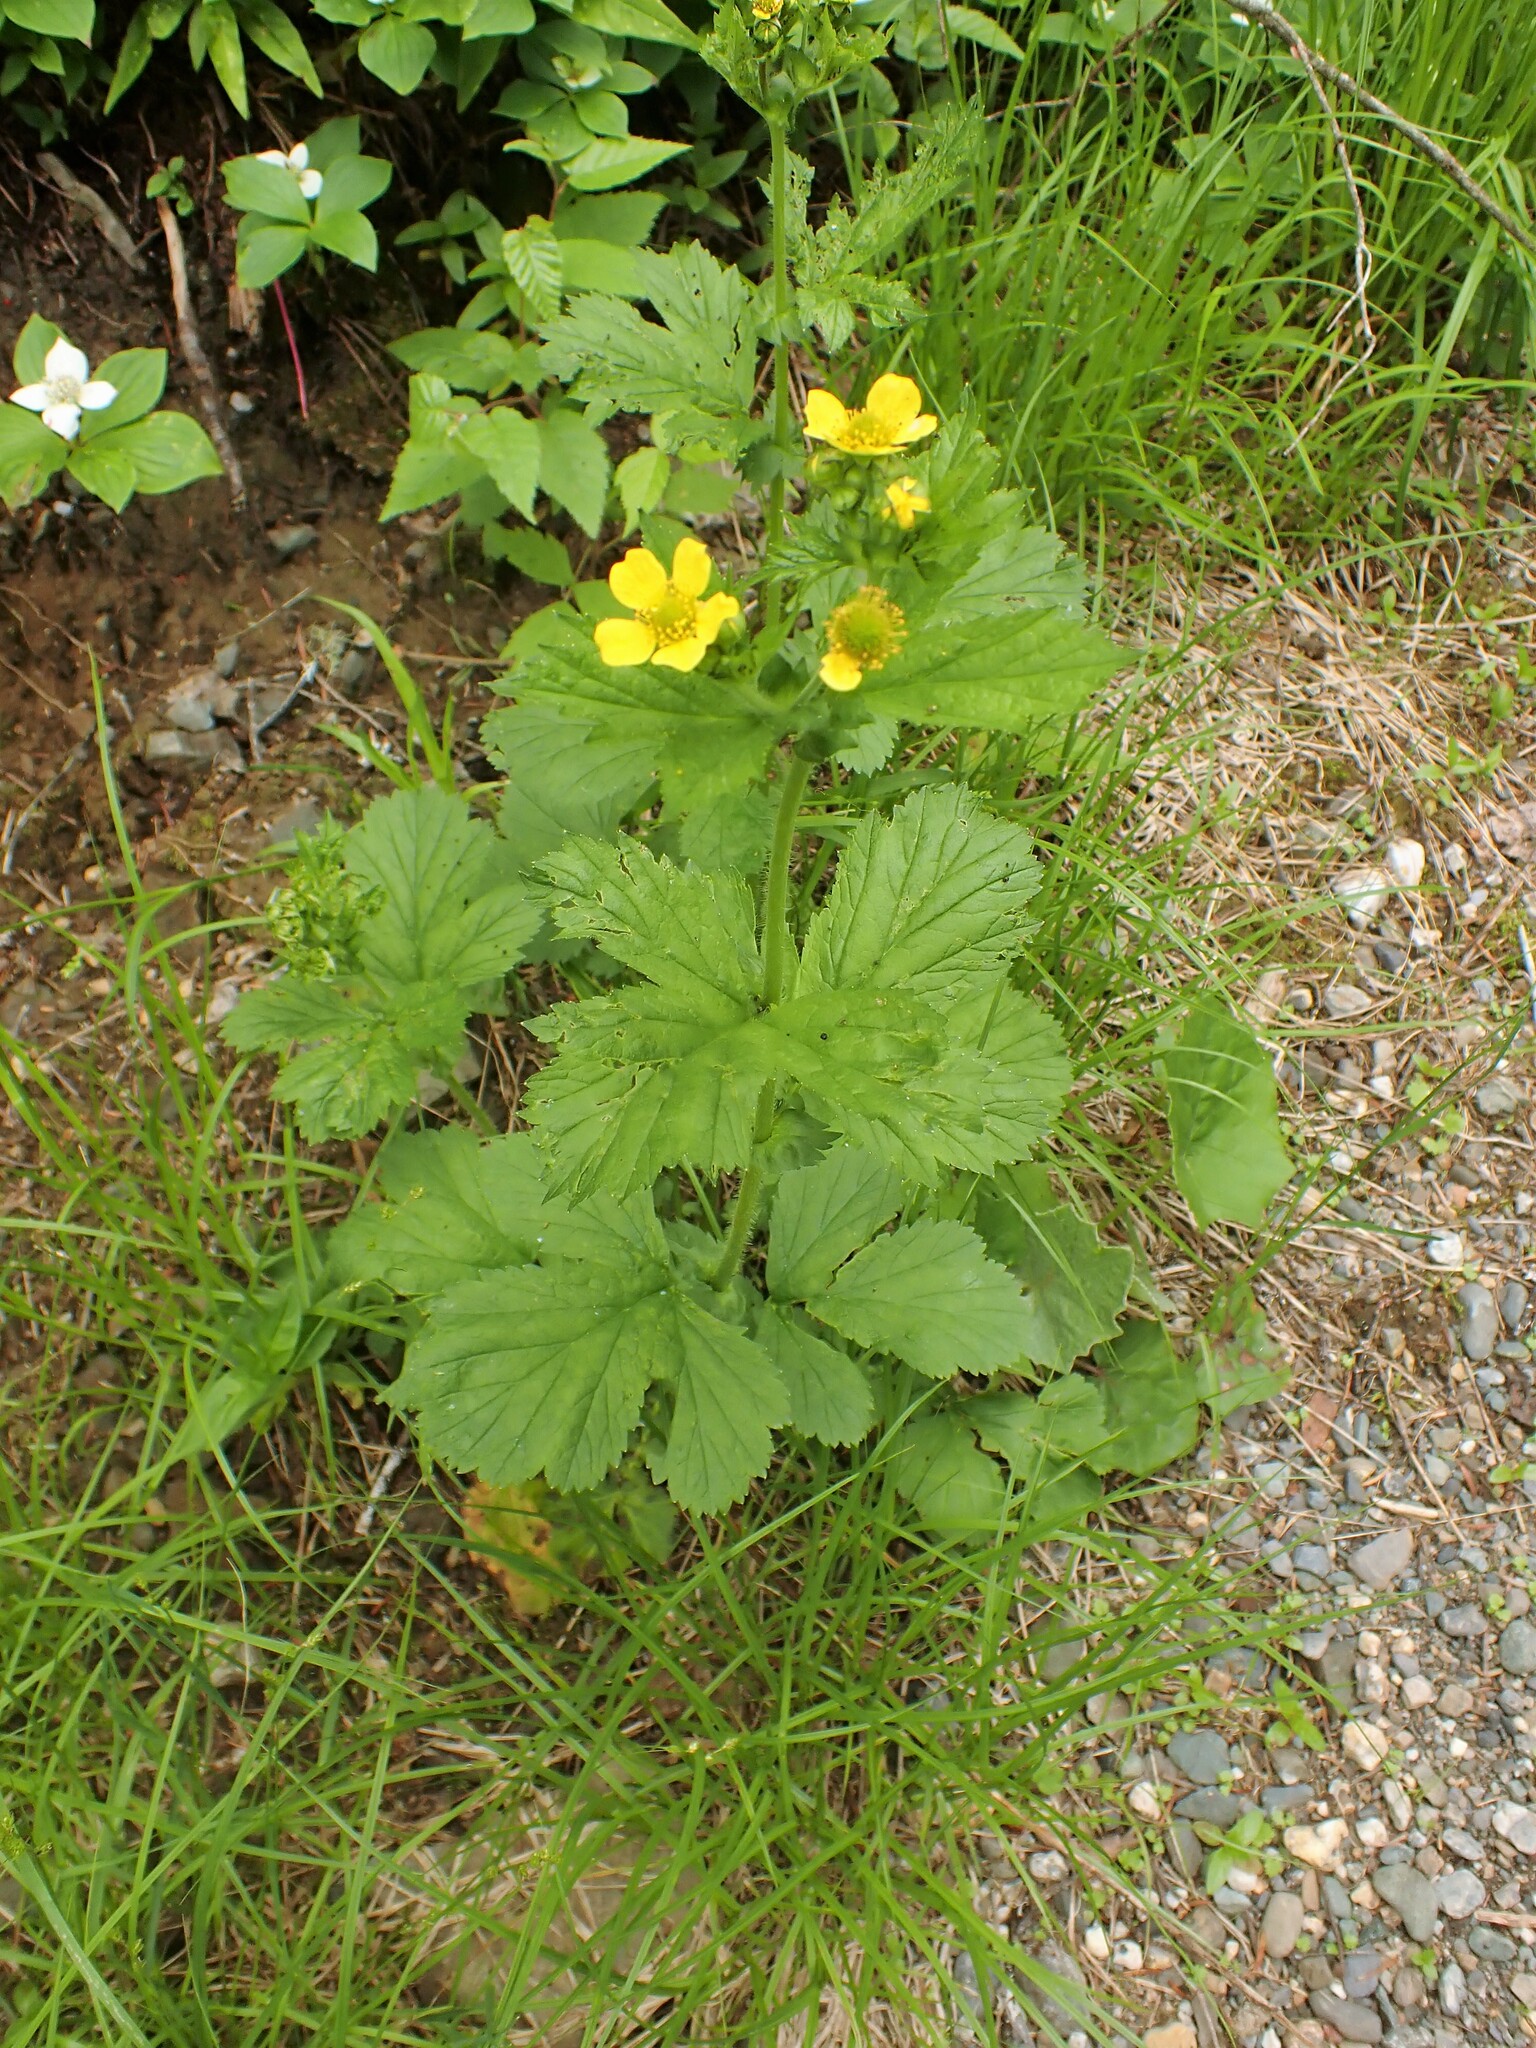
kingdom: Plantae
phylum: Tracheophyta
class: Magnoliopsida
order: Rosales
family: Rosaceae
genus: Geum
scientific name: Geum macrophyllum
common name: Large-leaved avens
